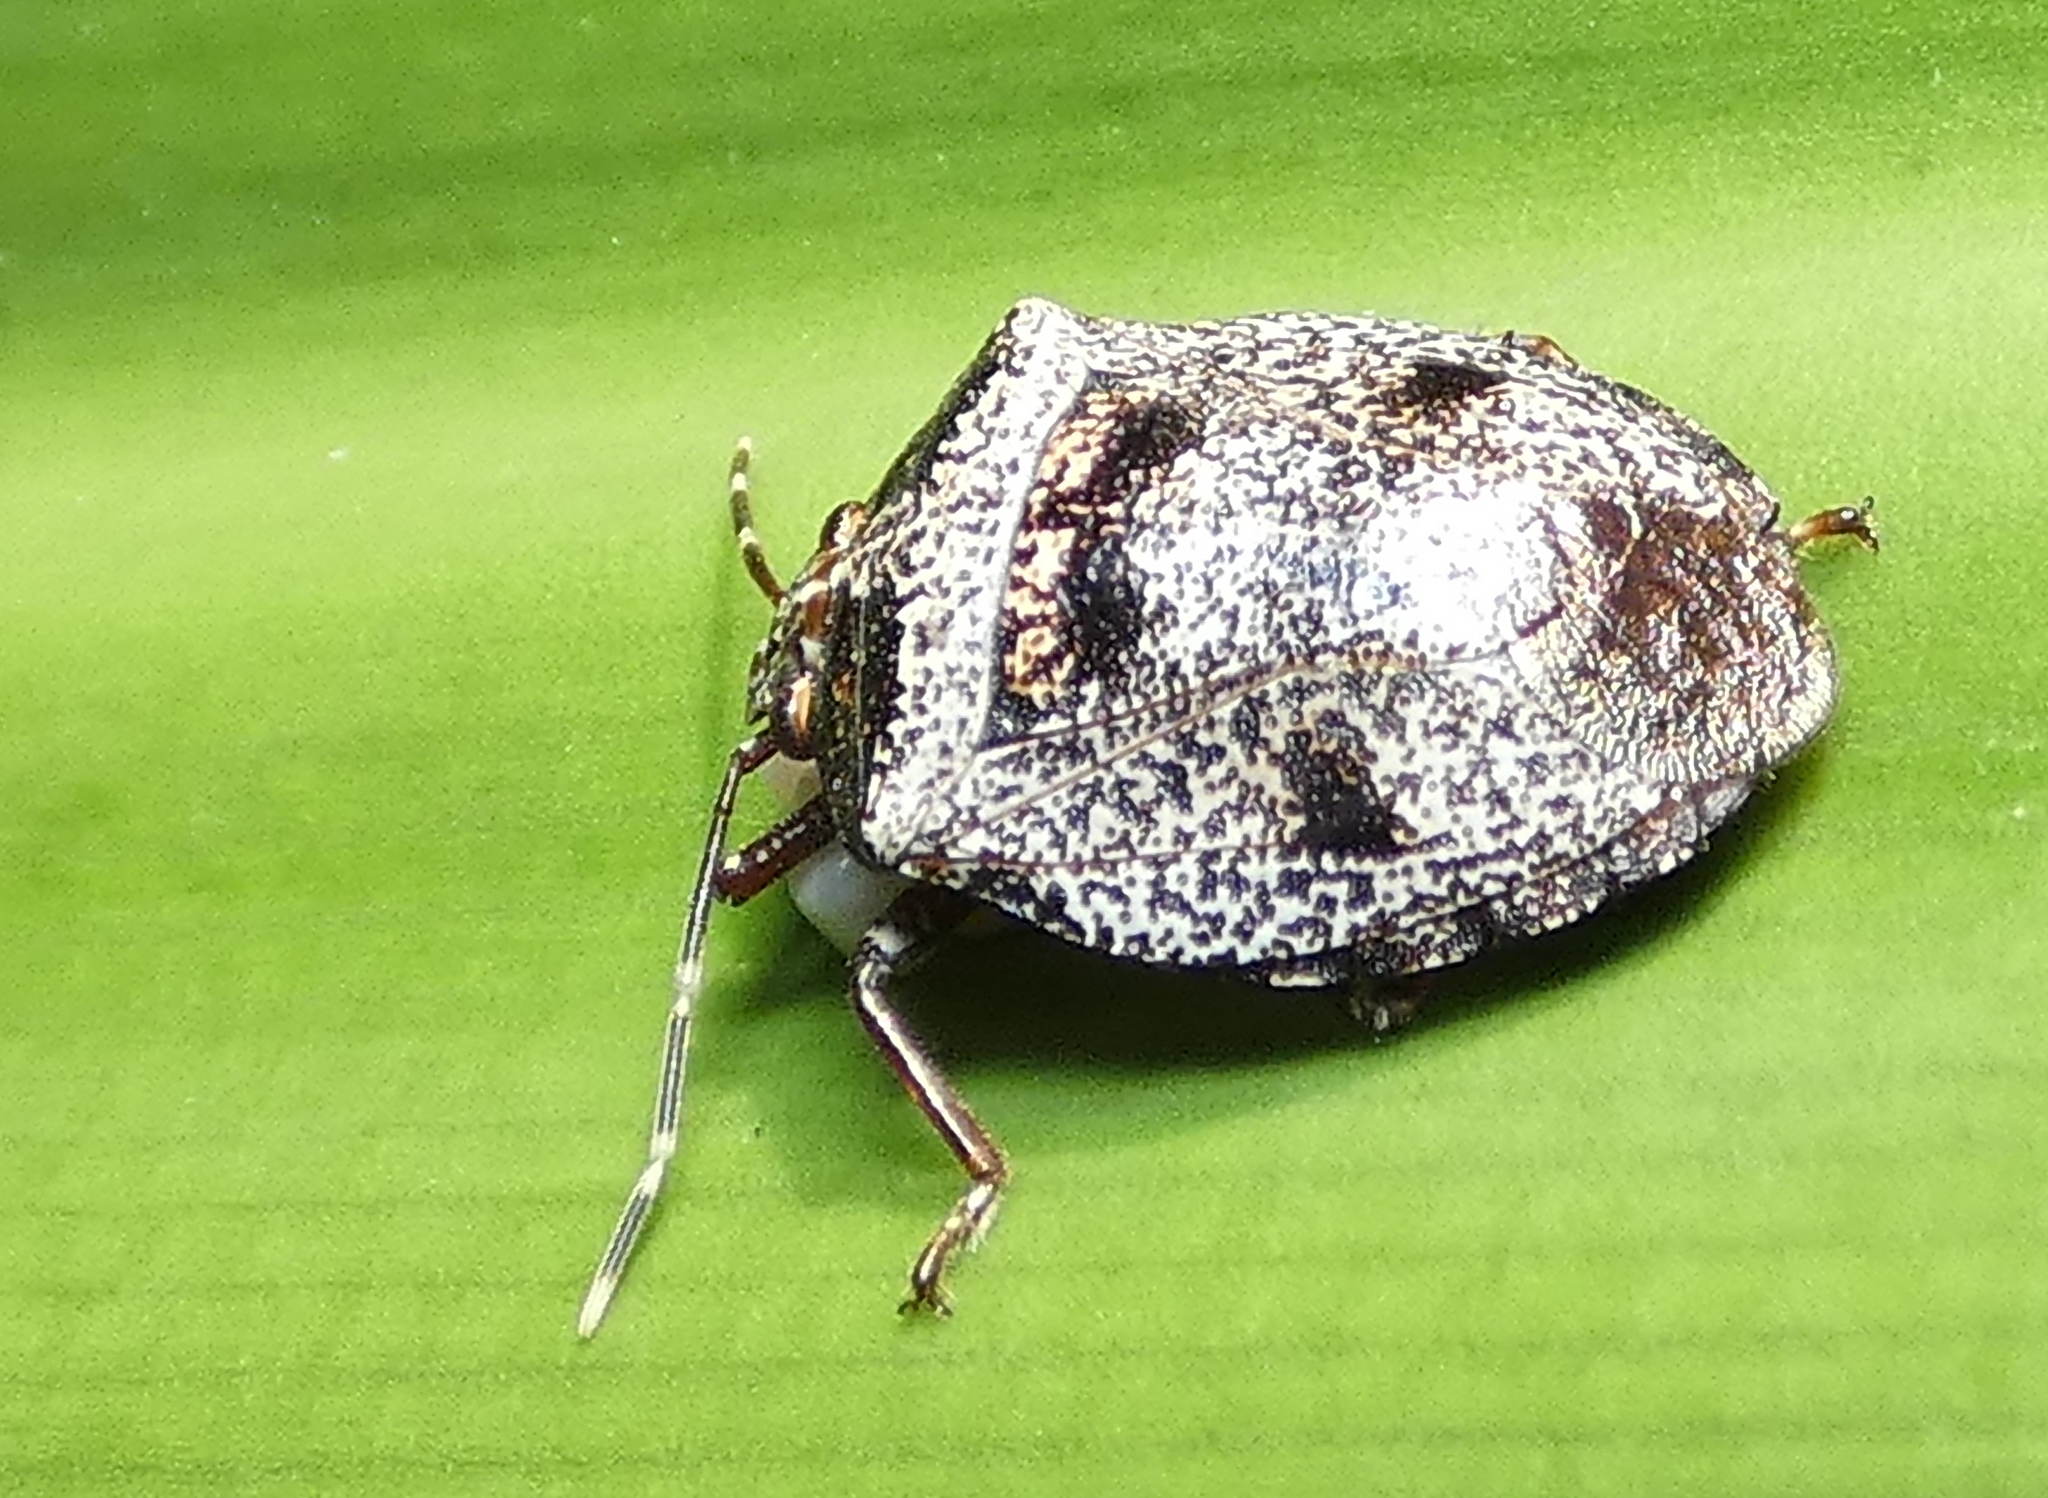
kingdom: Animalia
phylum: Arthropoda
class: Insecta
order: Hemiptera
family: Pentatomidae
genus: Antiteuchus
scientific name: Antiteuchus mixtus
